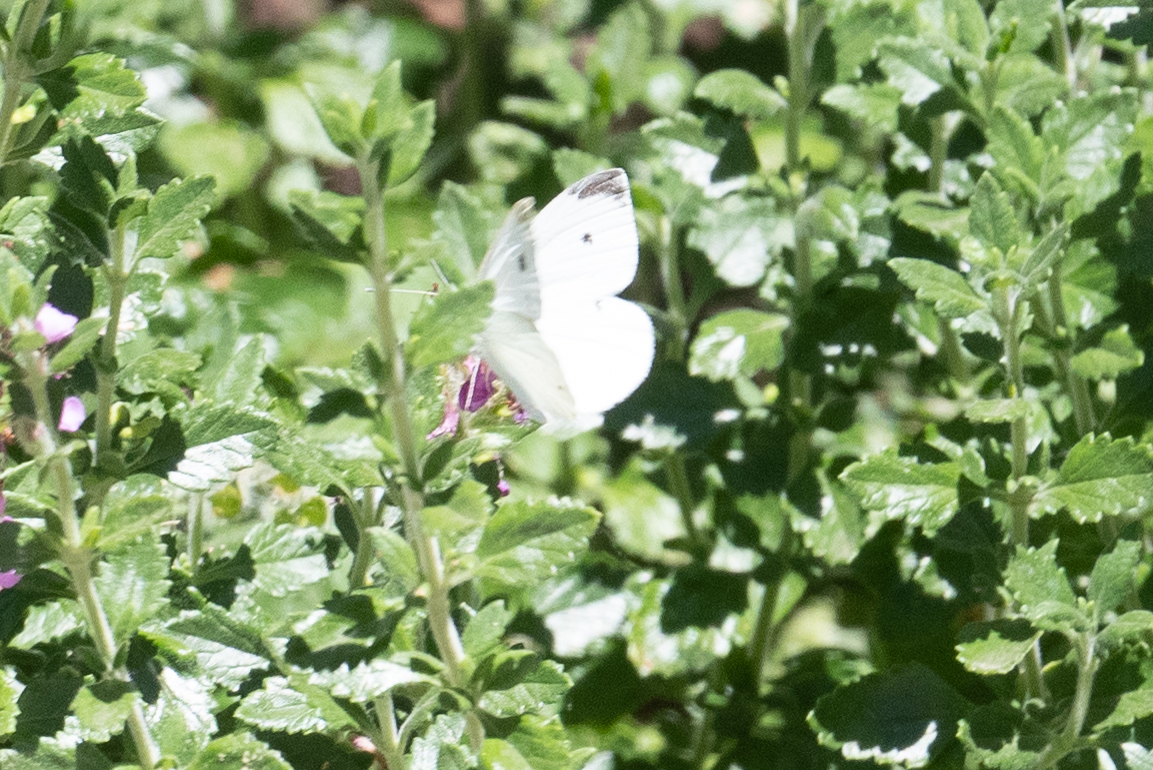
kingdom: Animalia
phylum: Arthropoda
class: Insecta
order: Lepidoptera
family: Pieridae
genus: Pieris
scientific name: Pieris rapae
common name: Small white
